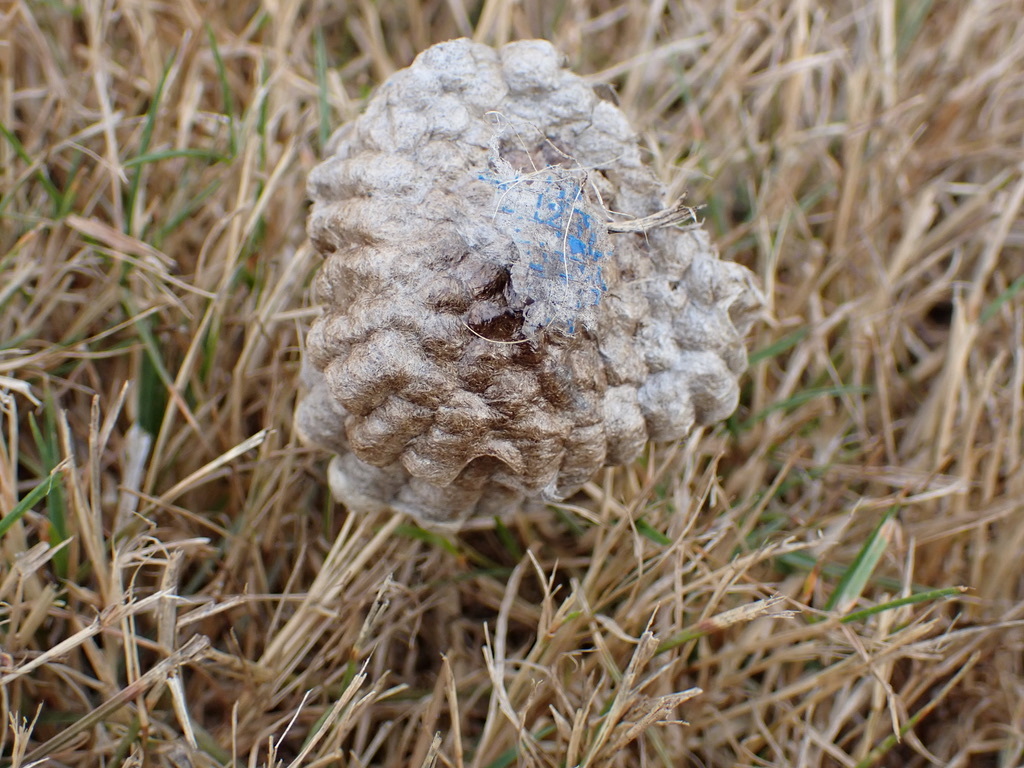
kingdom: Animalia
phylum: Arthropoda
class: Insecta
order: Hymenoptera
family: Eumenidae
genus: Polistes
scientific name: Polistes
